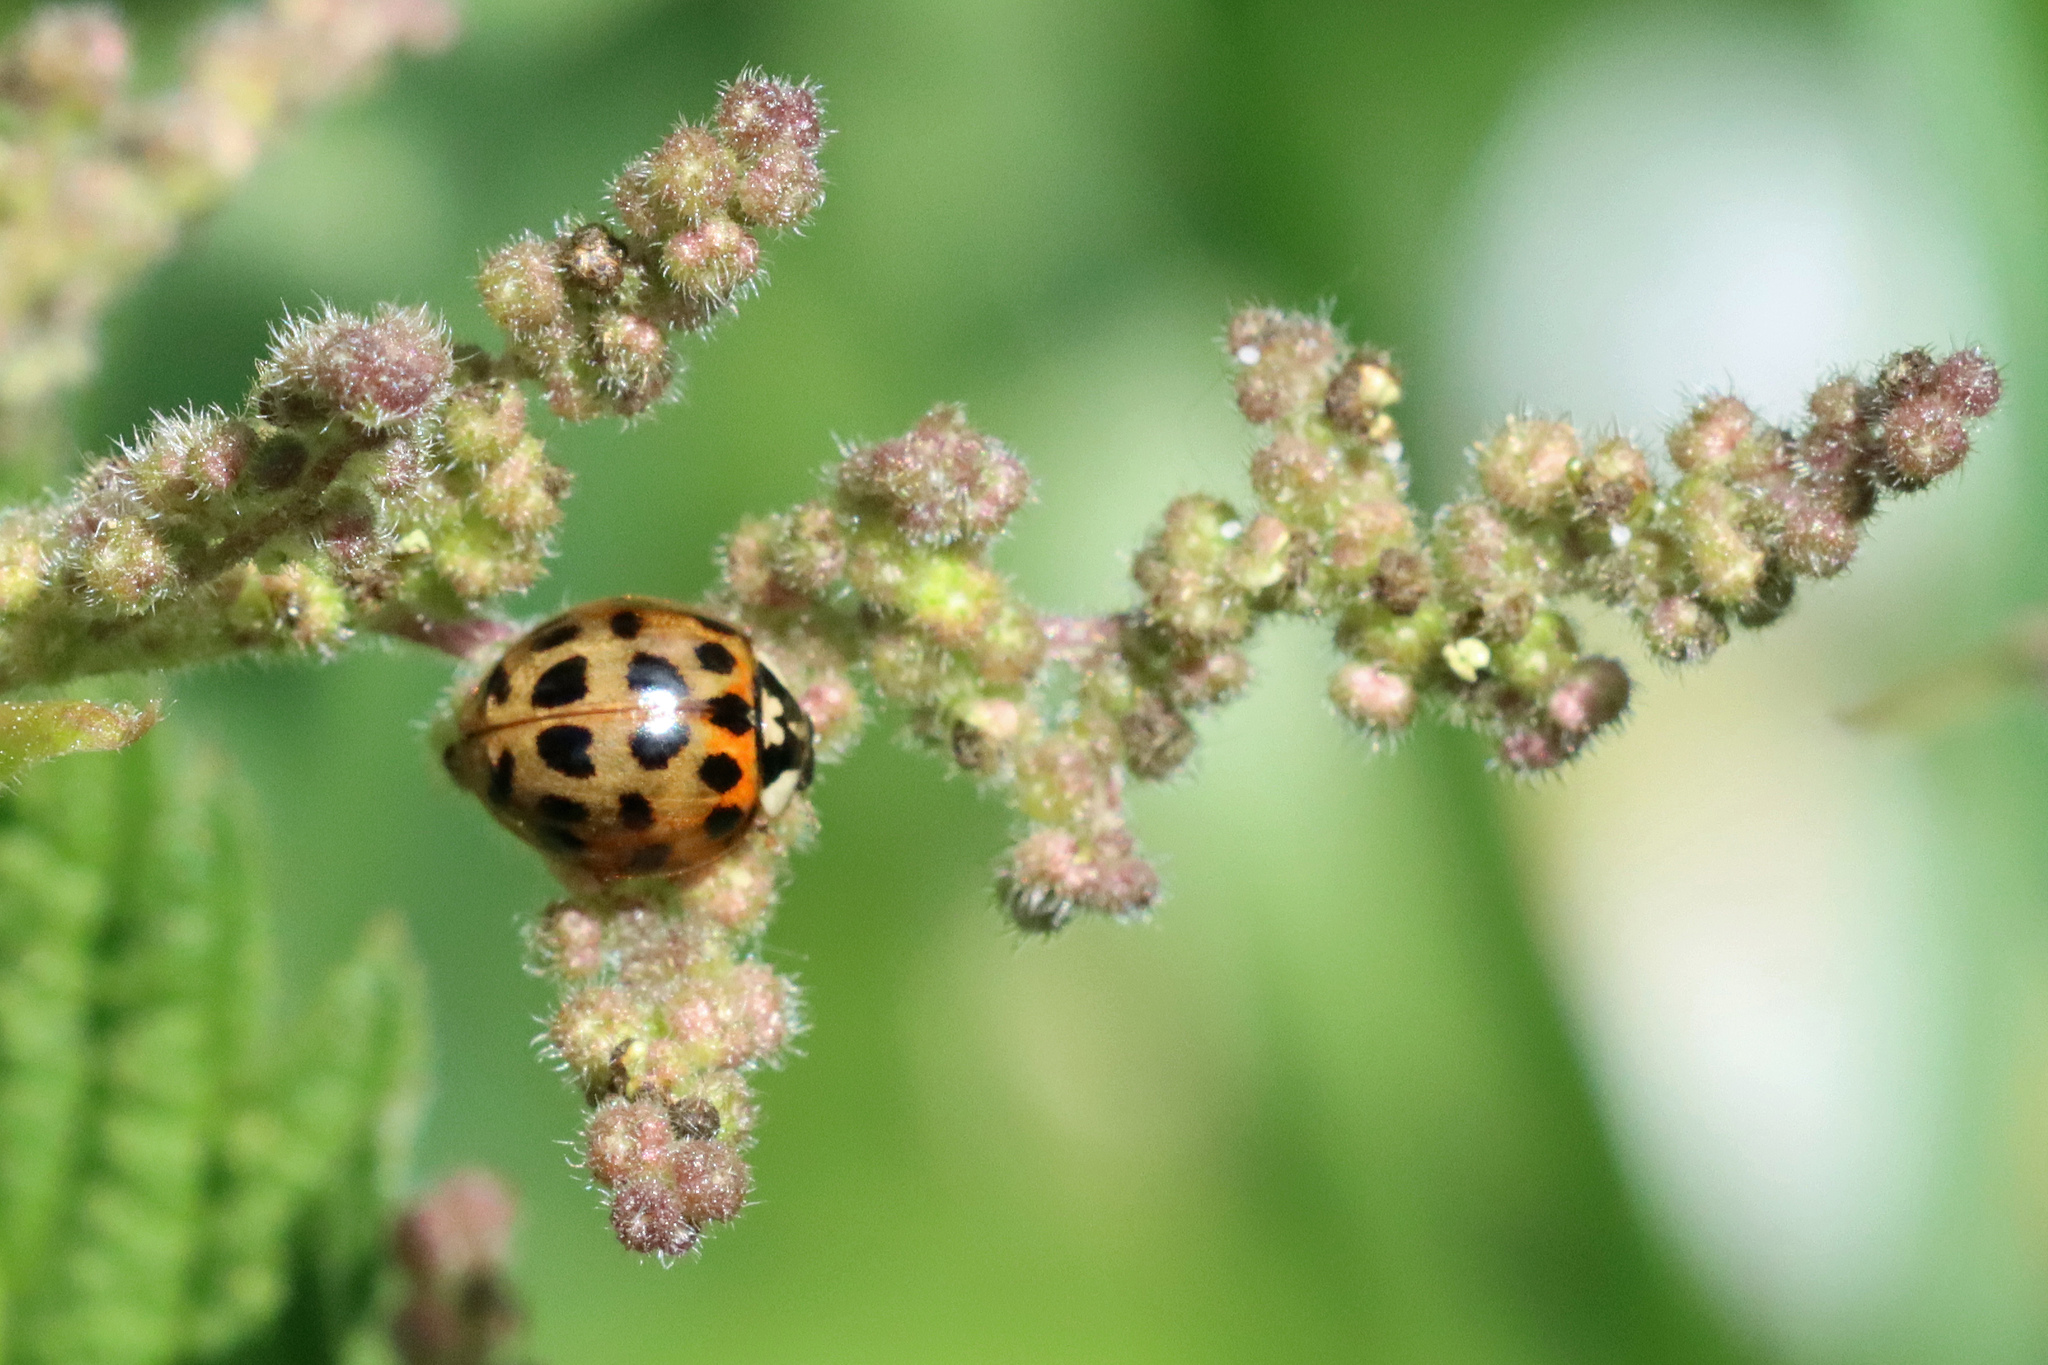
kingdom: Animalia
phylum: Arthropoda
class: Insecta
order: Coleoptera
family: Coccinellidae
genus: Harmonia
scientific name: Harmonia axyridis
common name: Harlequin ladybird
